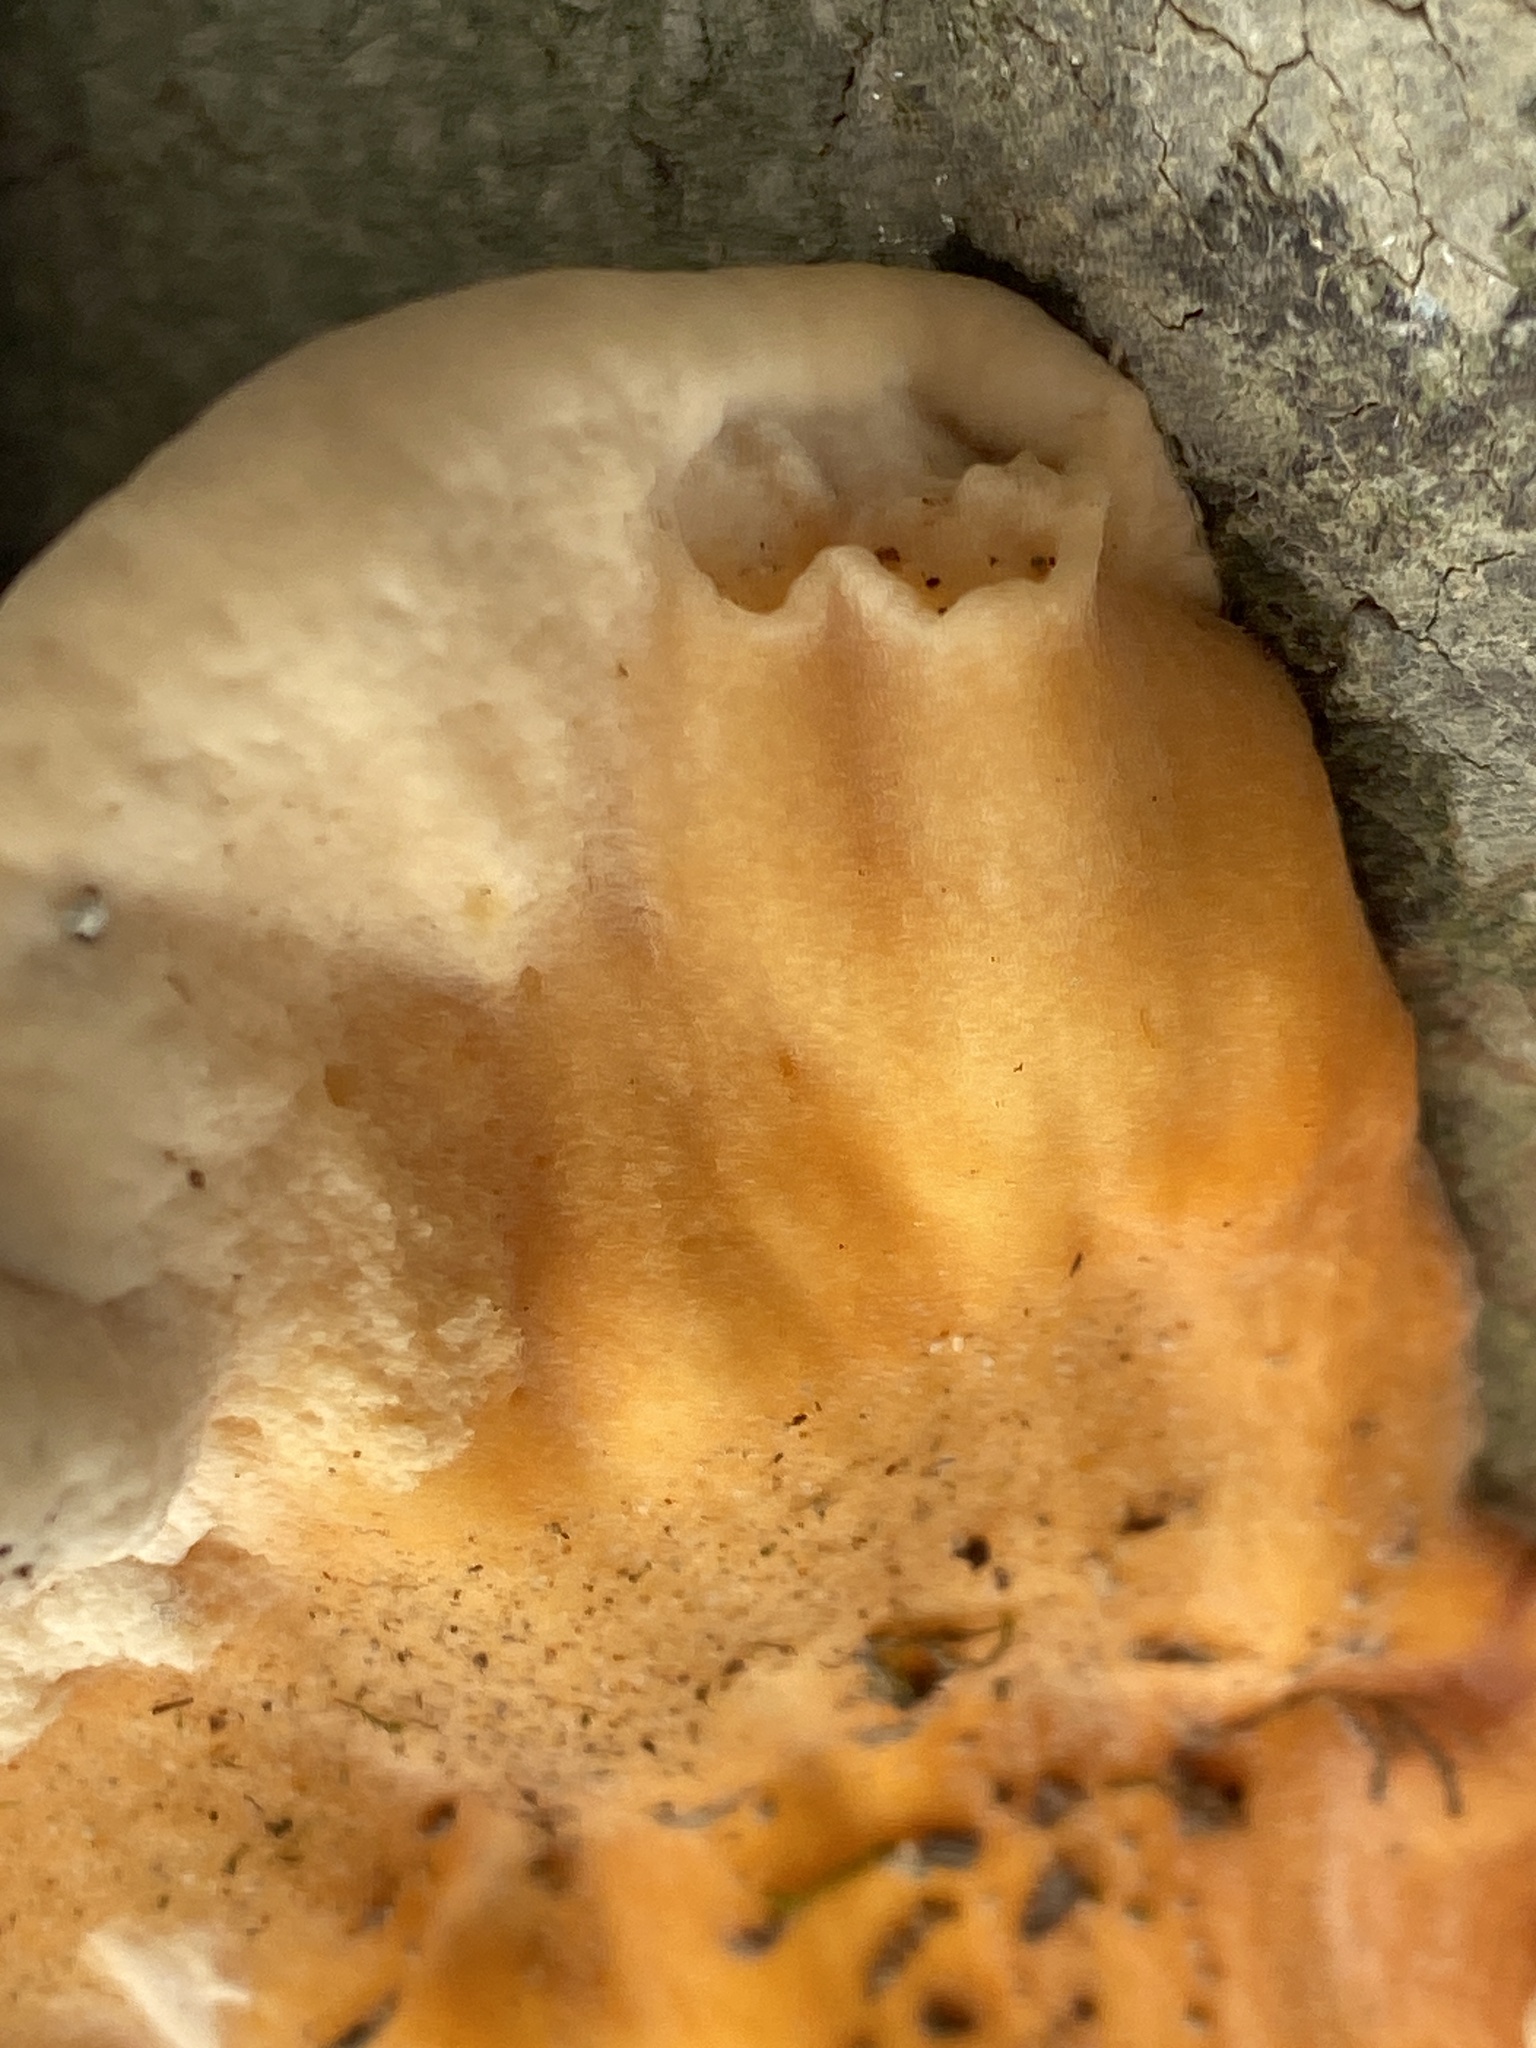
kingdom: Fungi
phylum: Basidiomycota
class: Agaricomycetes
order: Polyporales
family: Laetiporaceae
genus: Laetiporus
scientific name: Laetiporus sulphureus
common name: Chicken of the woods
